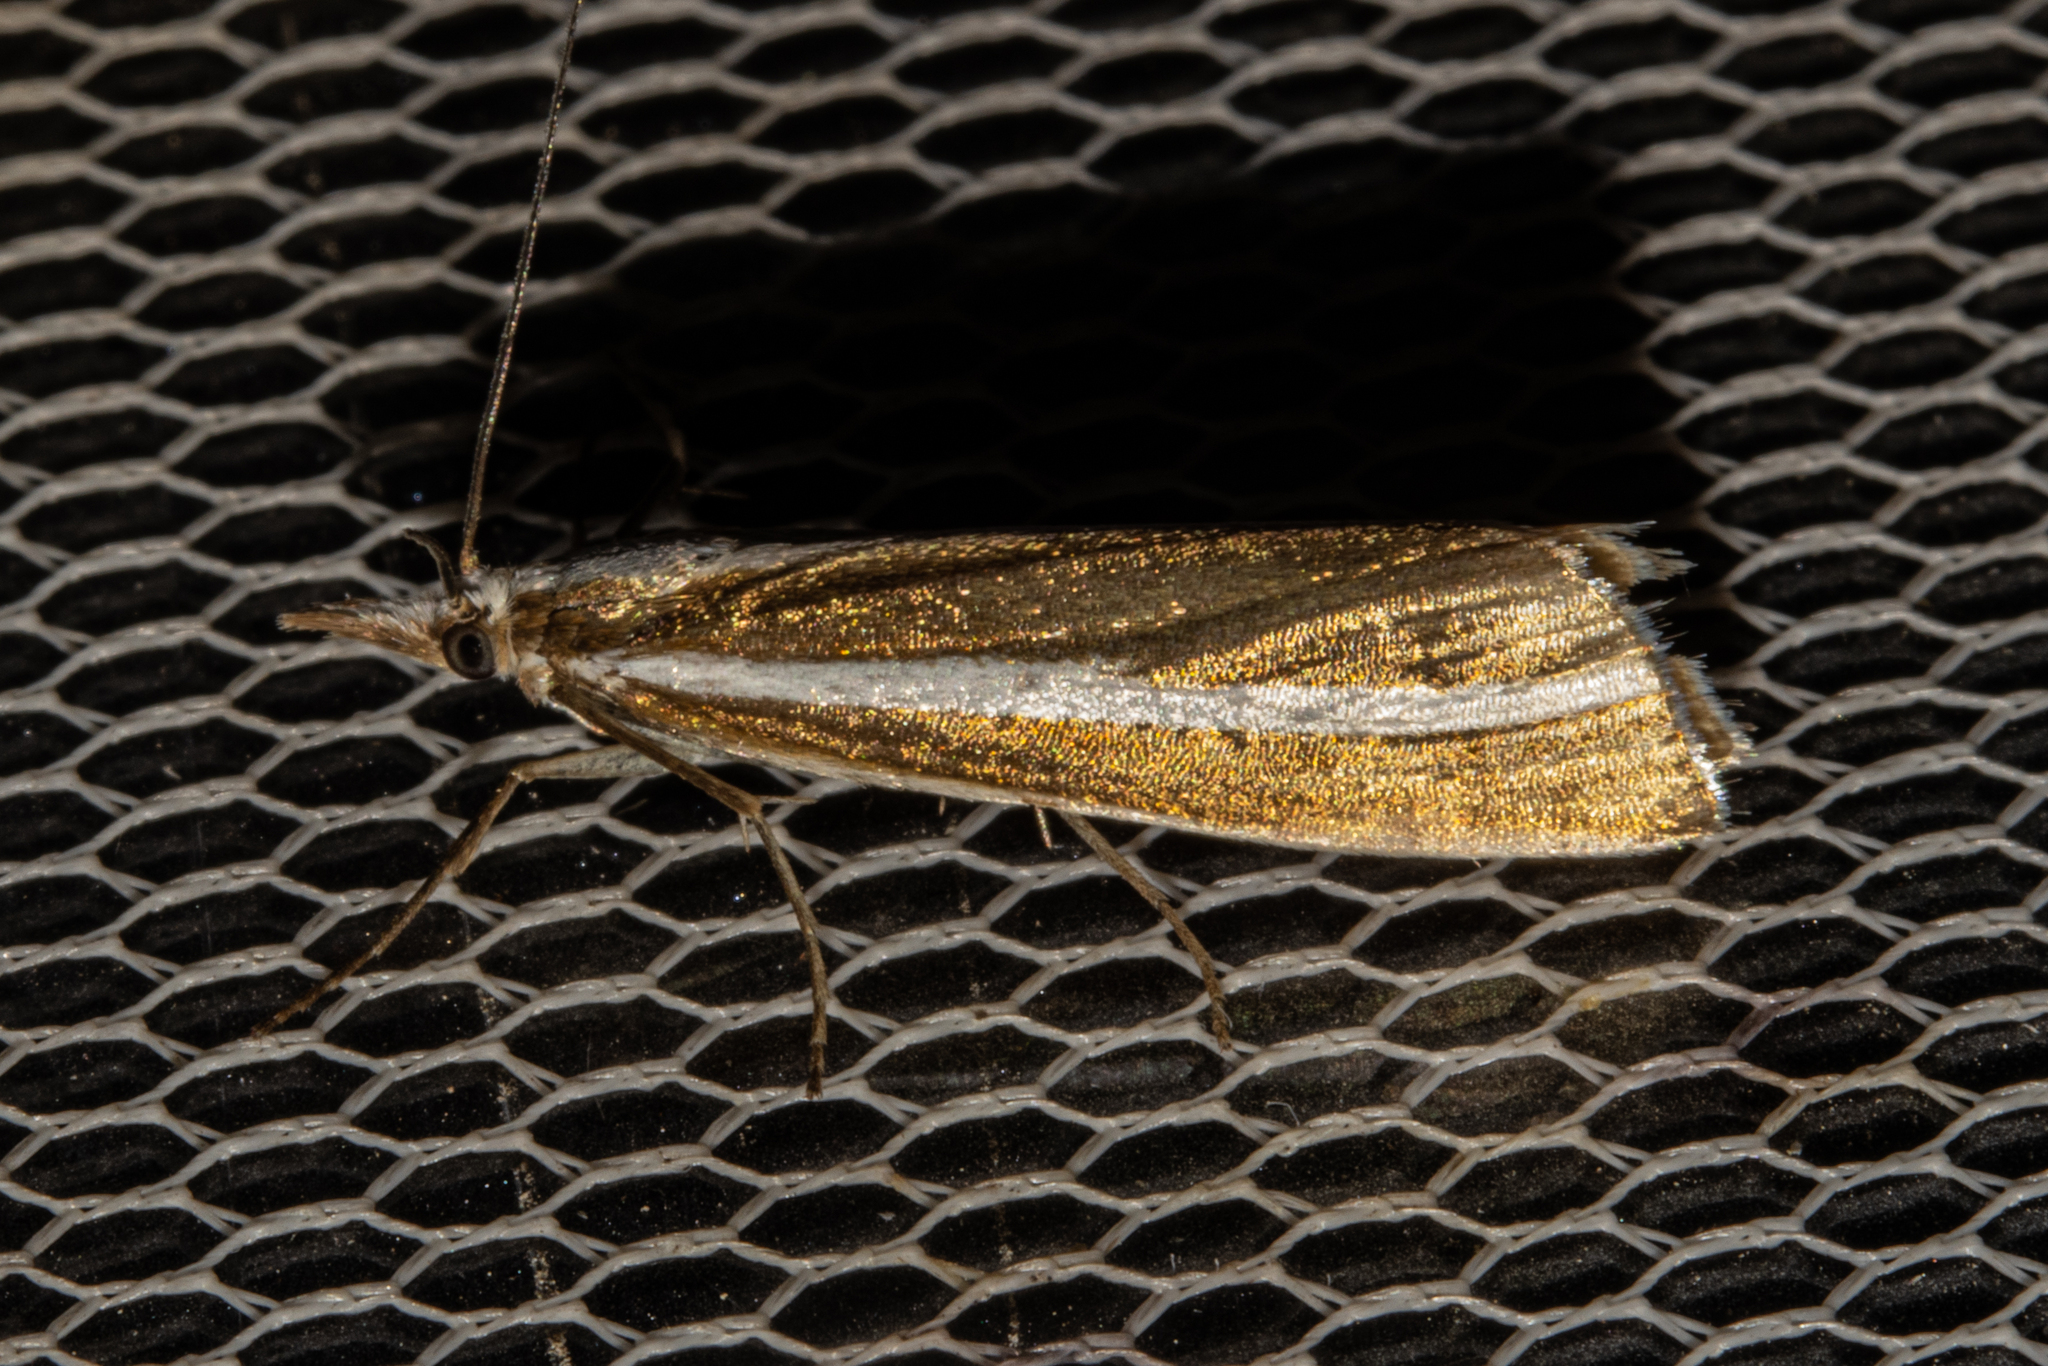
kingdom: Animalia
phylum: Arthropoda
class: Insecta
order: Lepidoptera
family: Crambidae
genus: Orocrambus
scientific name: Orocrambus philpotti
